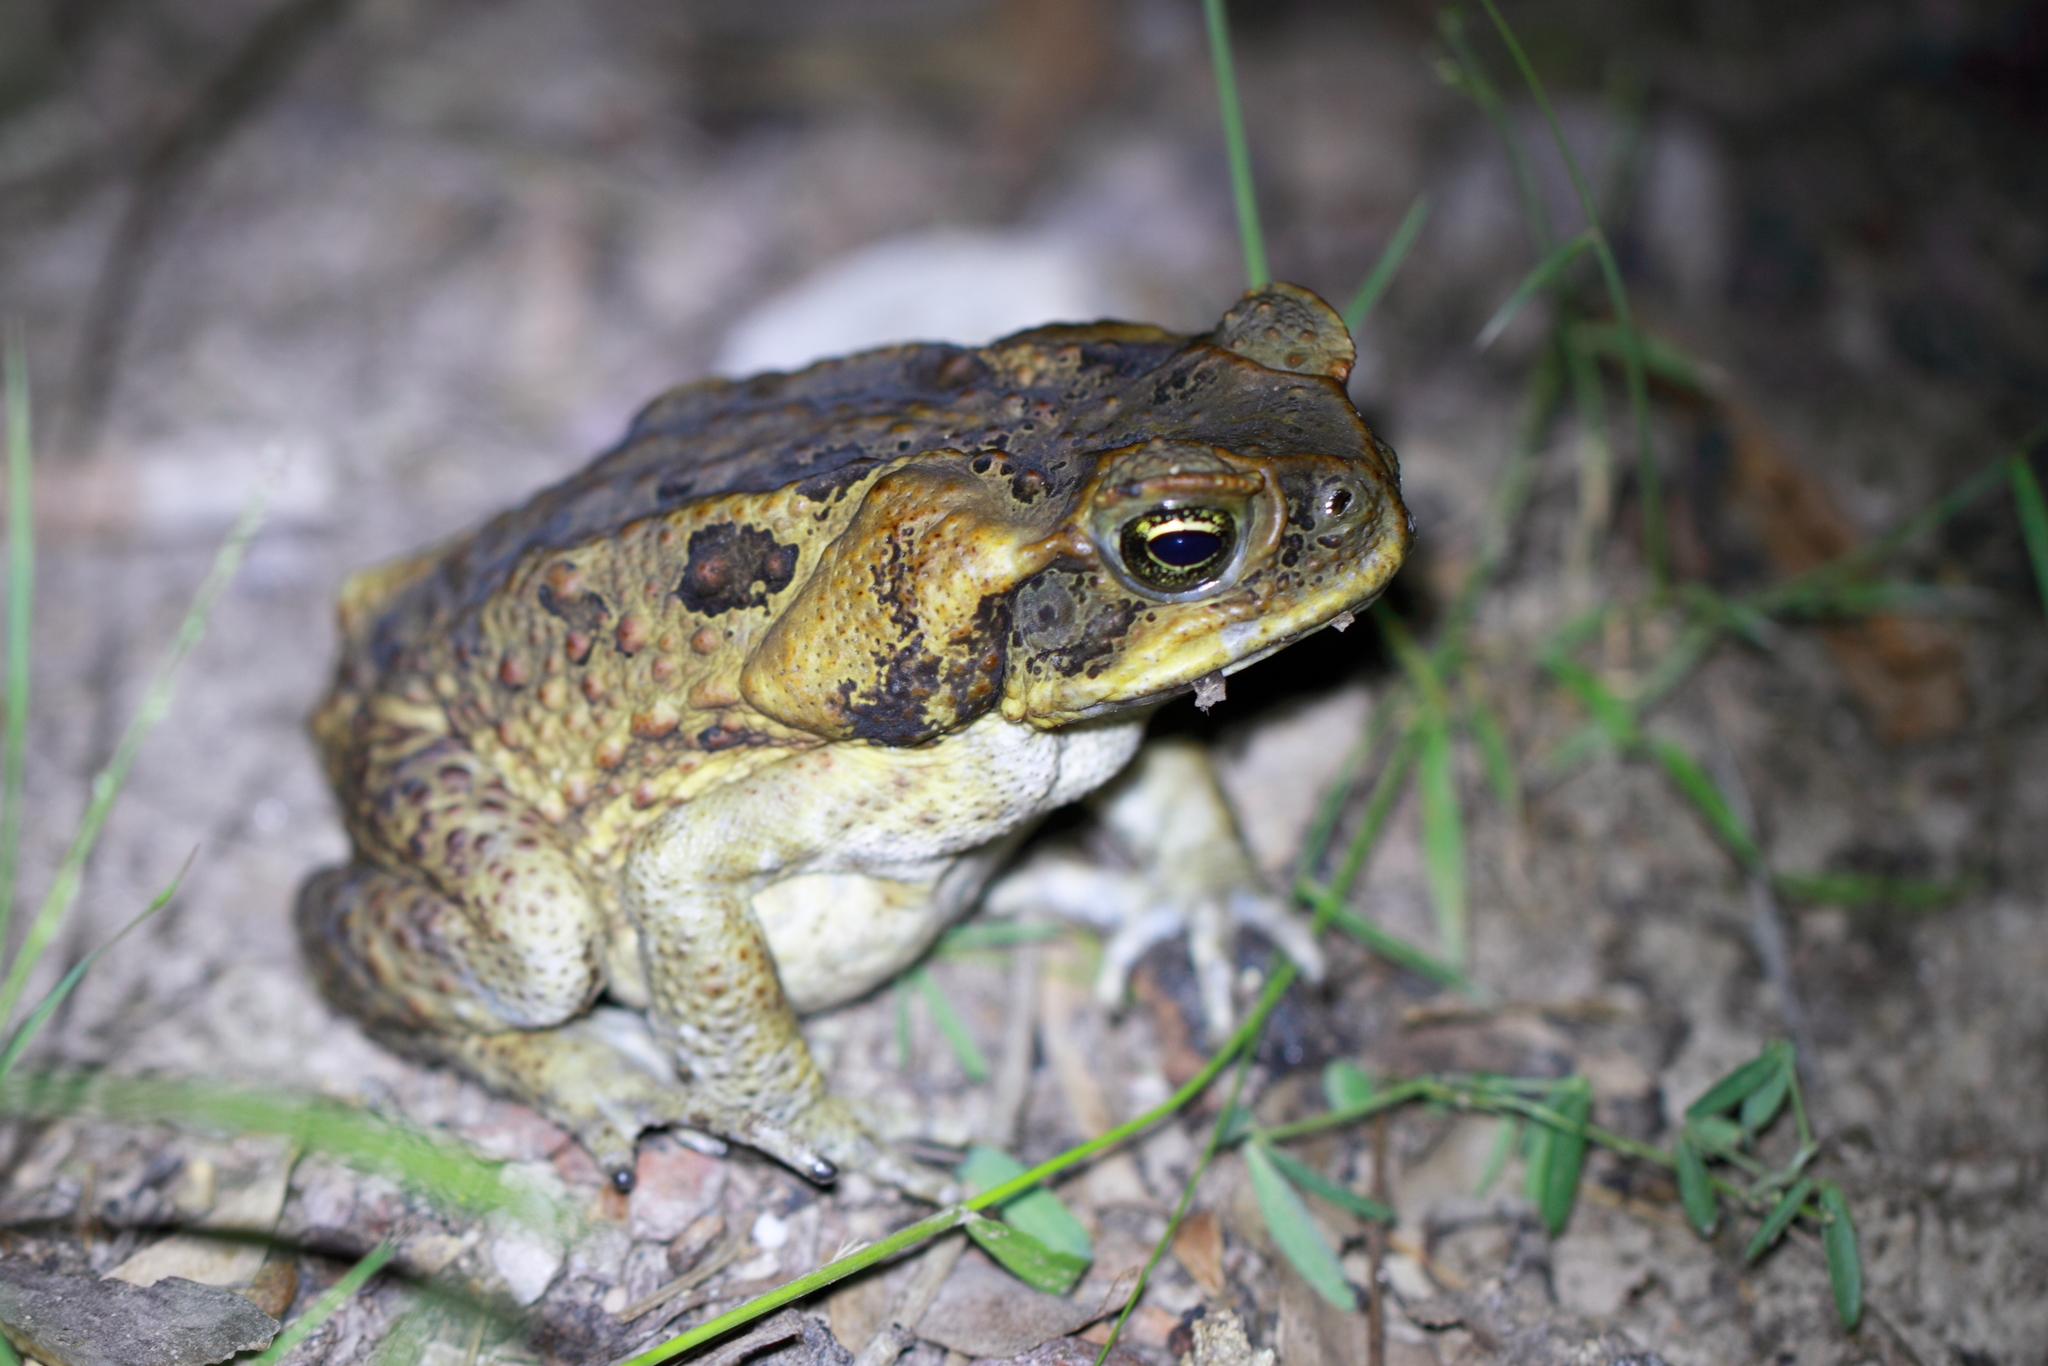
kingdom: Animalia
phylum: Chordata
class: Amphibia
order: Anura
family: Bufonidae
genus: Rhinella
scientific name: Rhinella marina
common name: Cane toad
